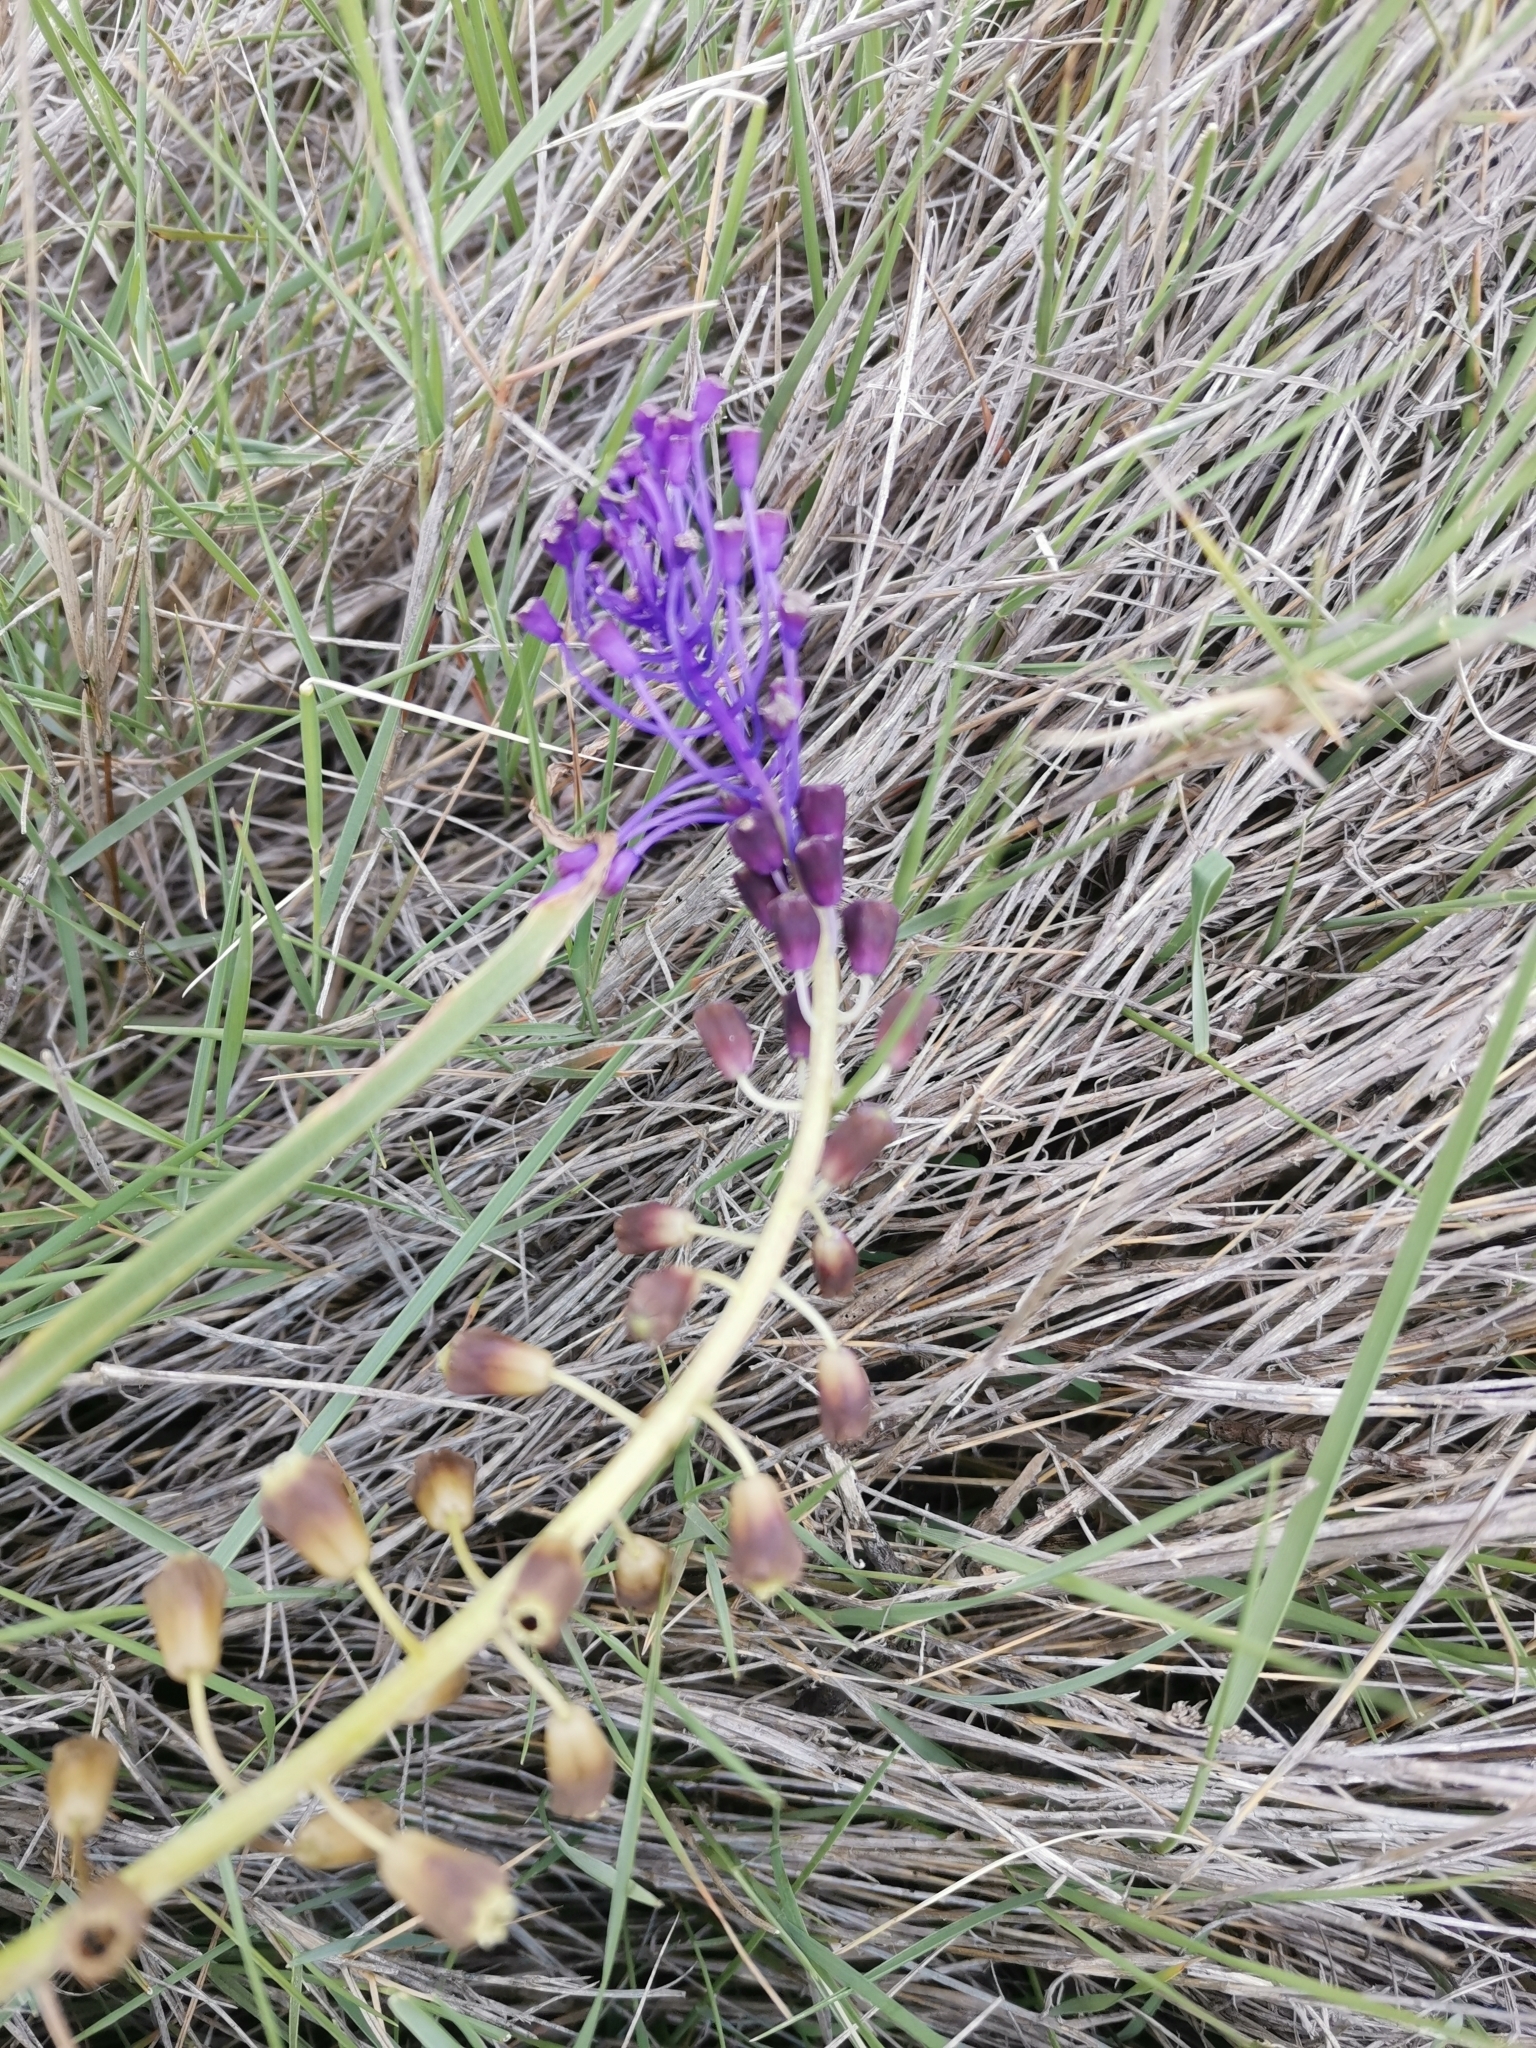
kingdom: Plantae
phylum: Tracheophyta
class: Liliopsida
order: Asparagales
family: Asparagaceae
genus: Muscari
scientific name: Muscari comosum
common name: Tassel hyacinth
